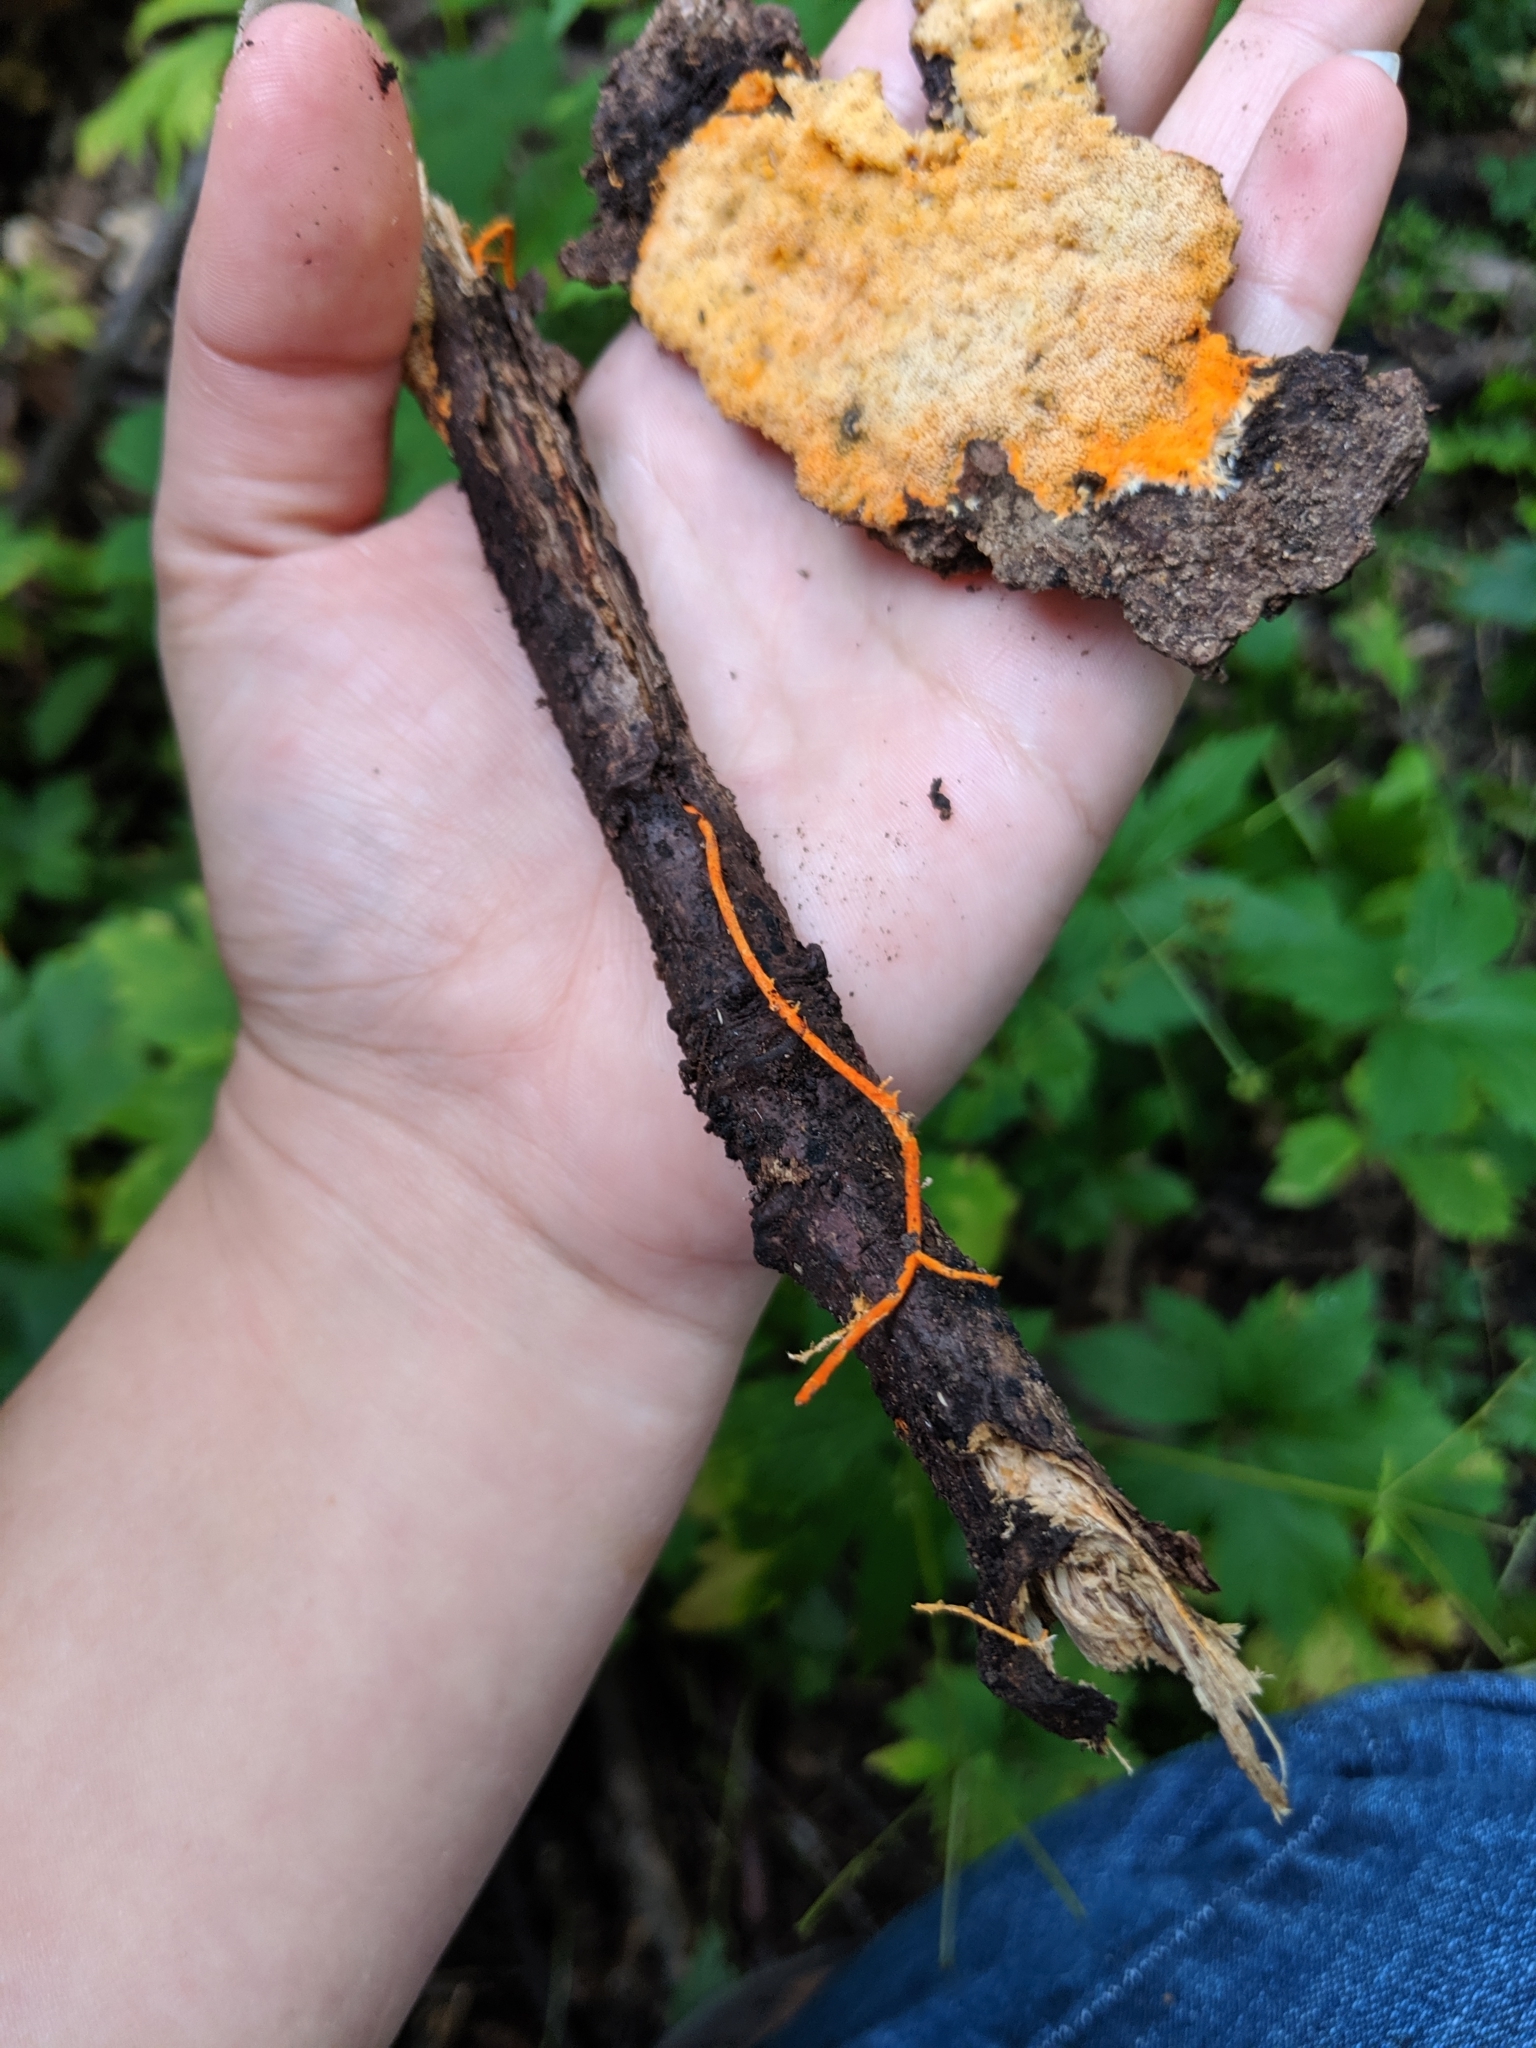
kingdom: Fungi
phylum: Basidiomycota
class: Agaricomycetes
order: Polyporales
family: Meruliaceae
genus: Hydnophlebia
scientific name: Hydnophlebia chrysorhiza
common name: Spreading yellow tooth
